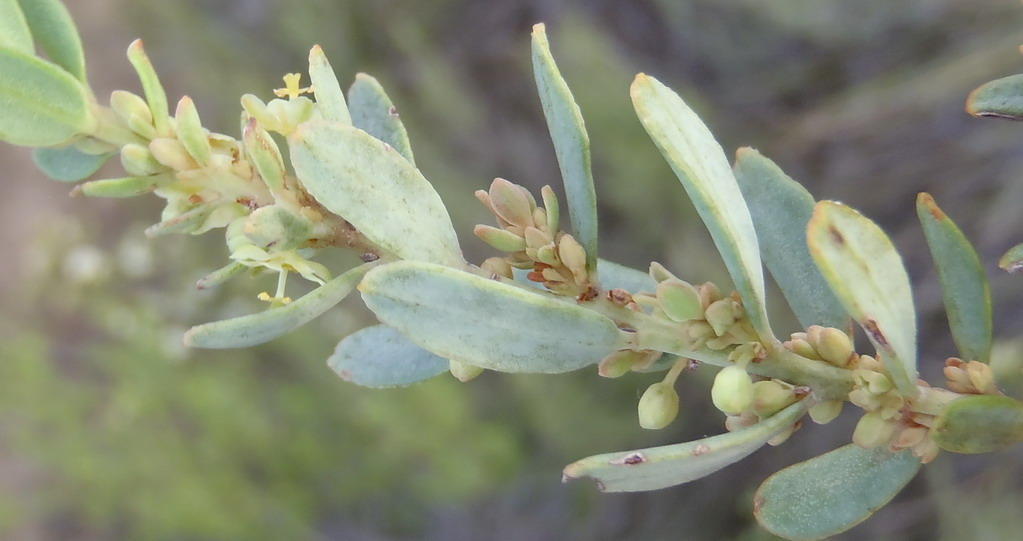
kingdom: Plantae
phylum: Tracheophyta
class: Magnoliopsida
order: Malpighiales
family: Peraceae
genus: Clutia
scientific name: Clutia laxa
